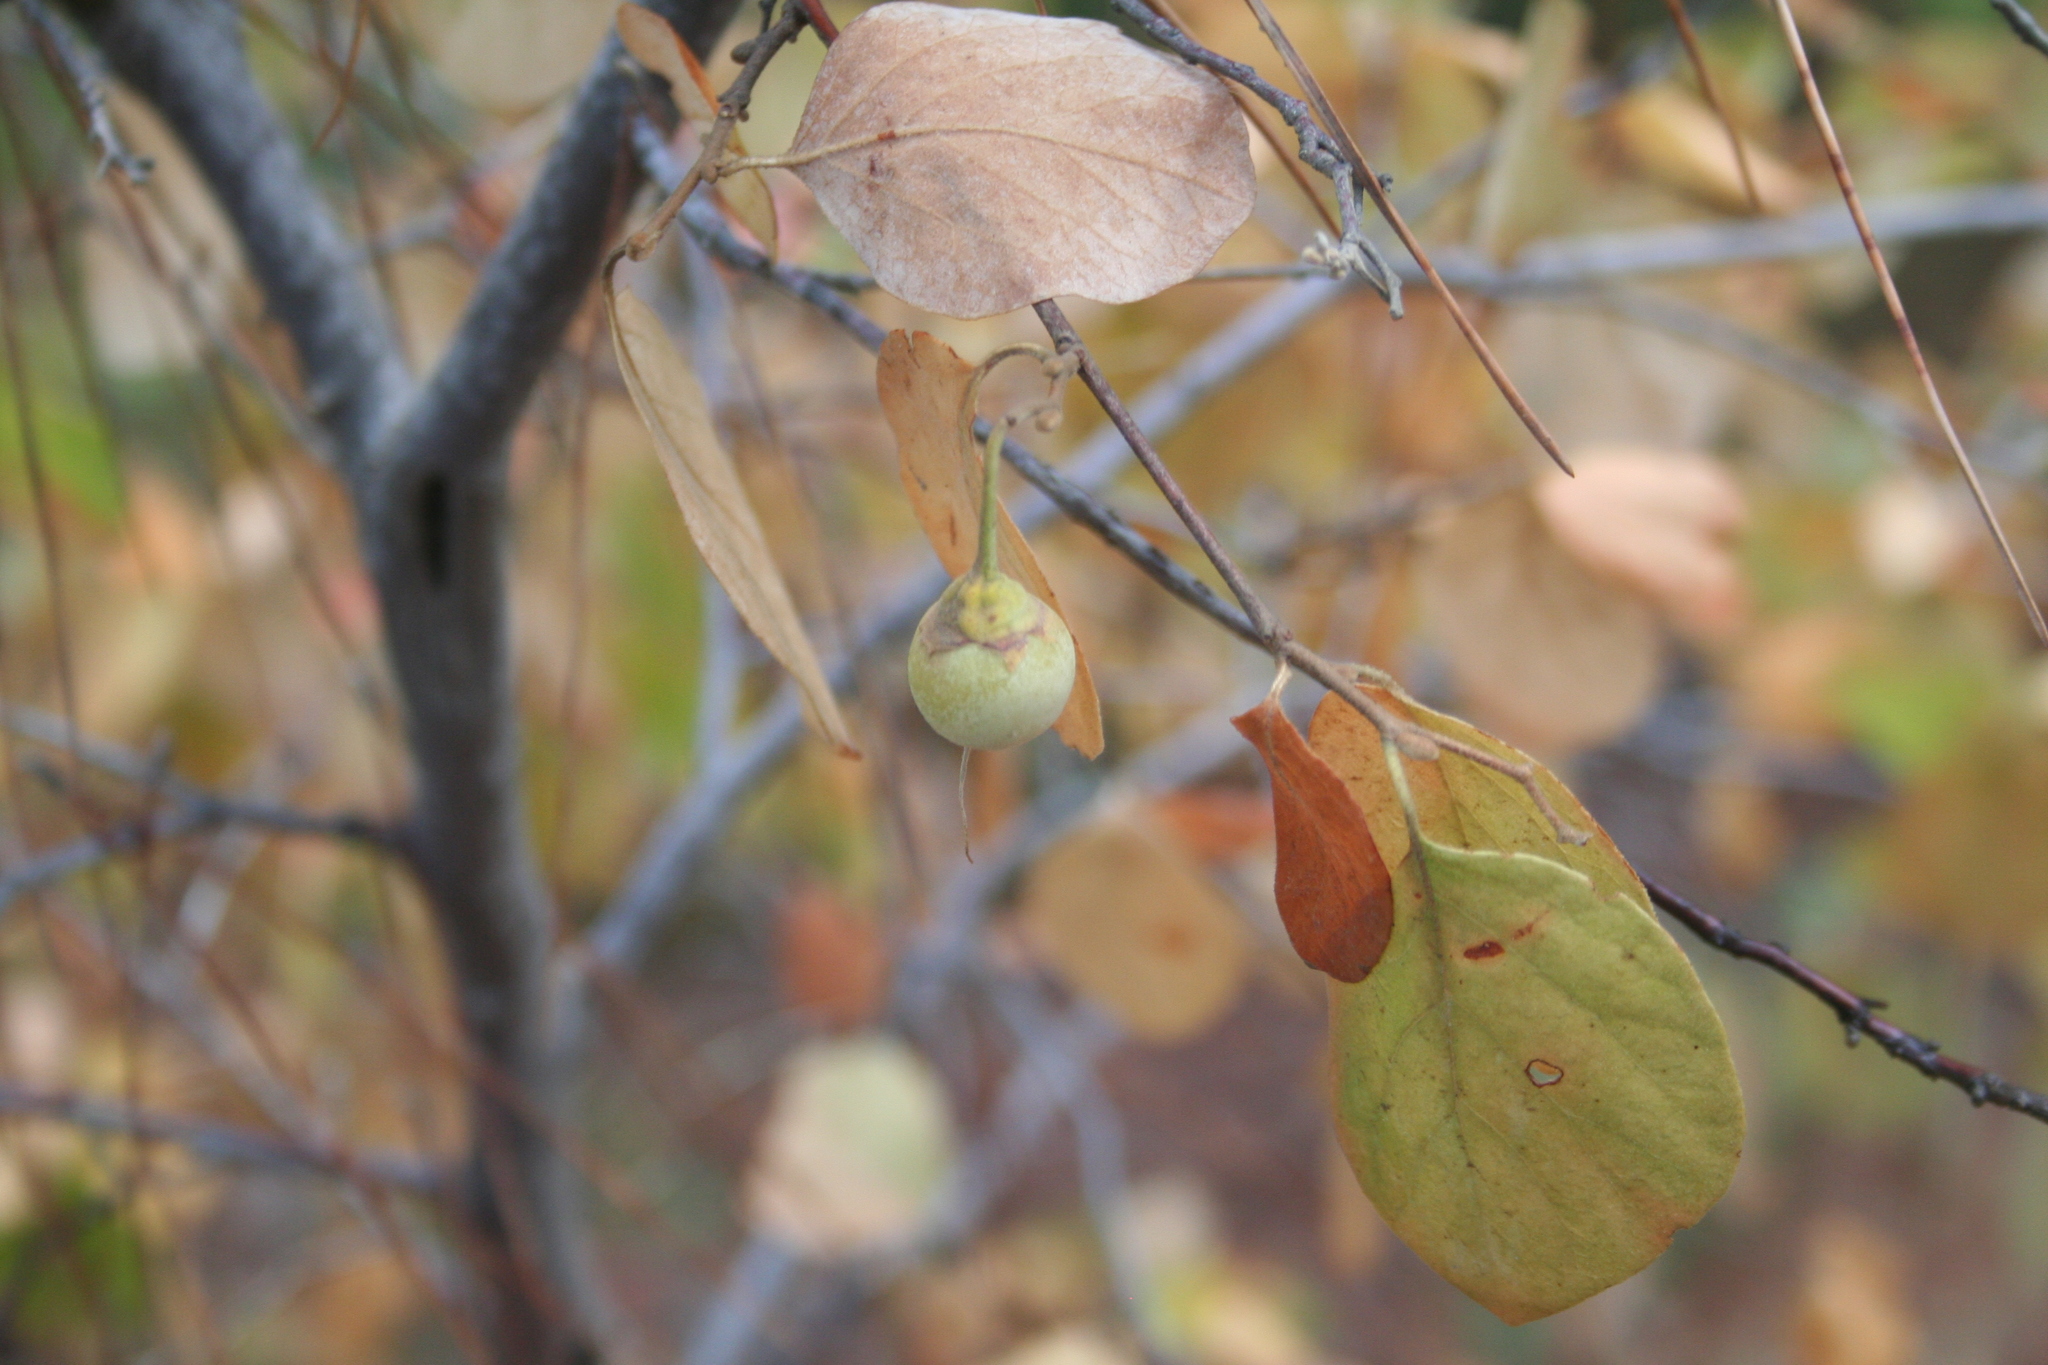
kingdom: Plantae
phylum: Tracheophyta
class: Magnoliopsida
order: Ericales
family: Styracaceae
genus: Styrax
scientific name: Styrax officinalis
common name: Storax
